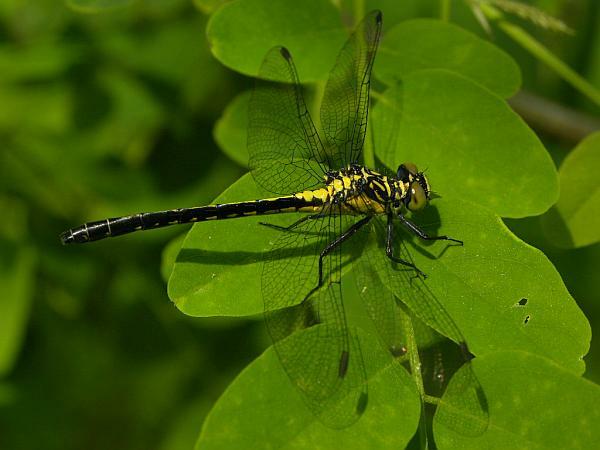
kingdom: Animalia
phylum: Arthropoda
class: Insecta
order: Odonata
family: Gomphidae
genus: Lanthus
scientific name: Lanthus vernalis
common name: Southern pygmy clubtail
